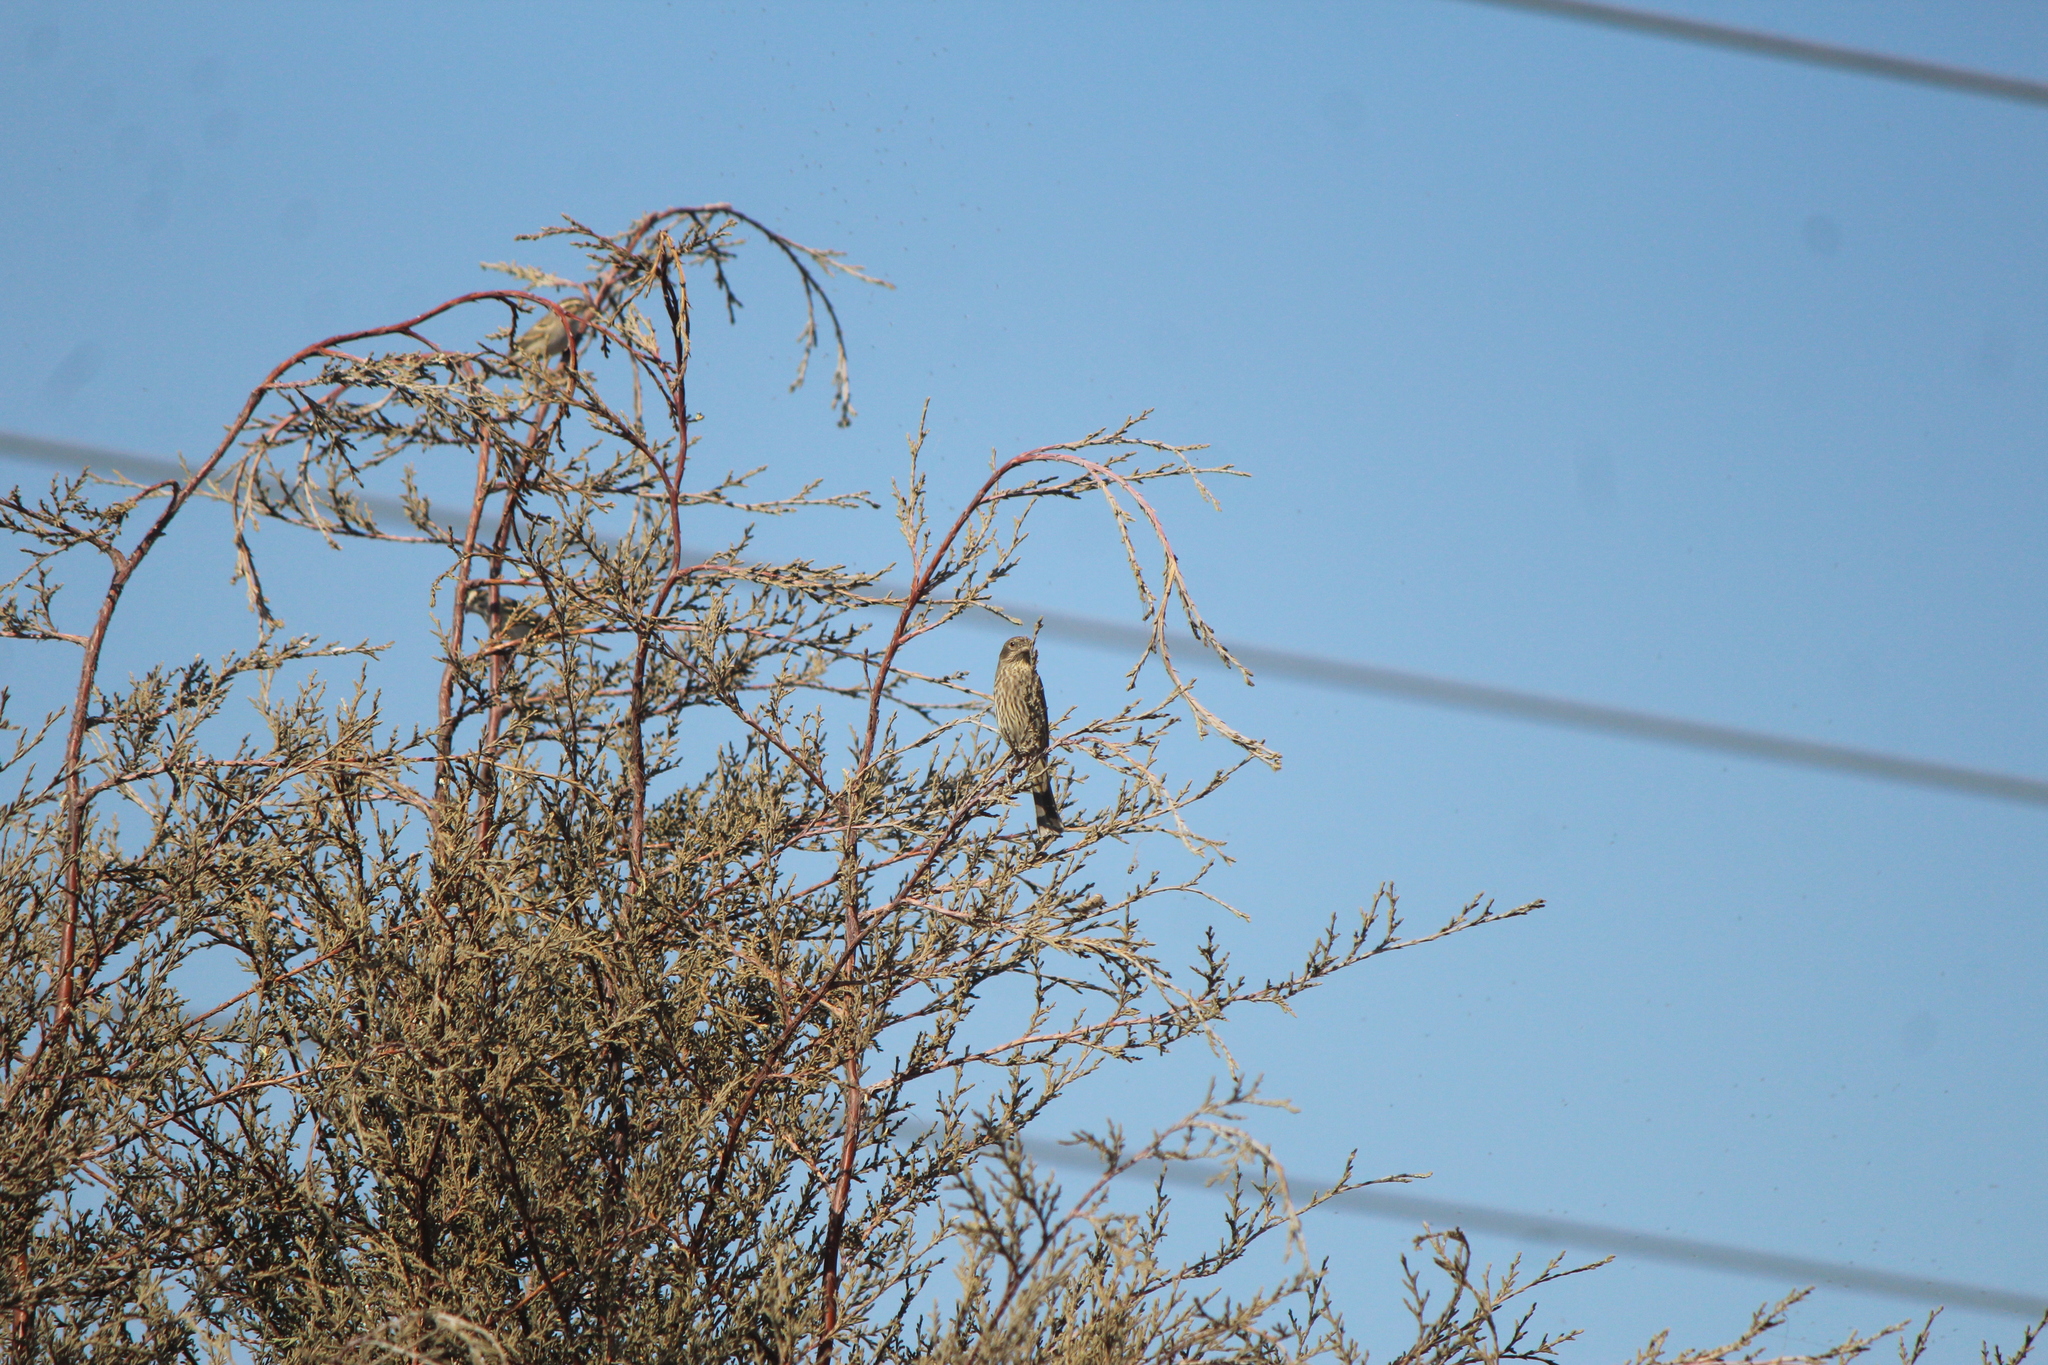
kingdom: Animalia
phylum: Chordata
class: Aves
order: Passeriformes
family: Fringillidae
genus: Haemorhous
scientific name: Haemorhous mexicanus
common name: House finch
